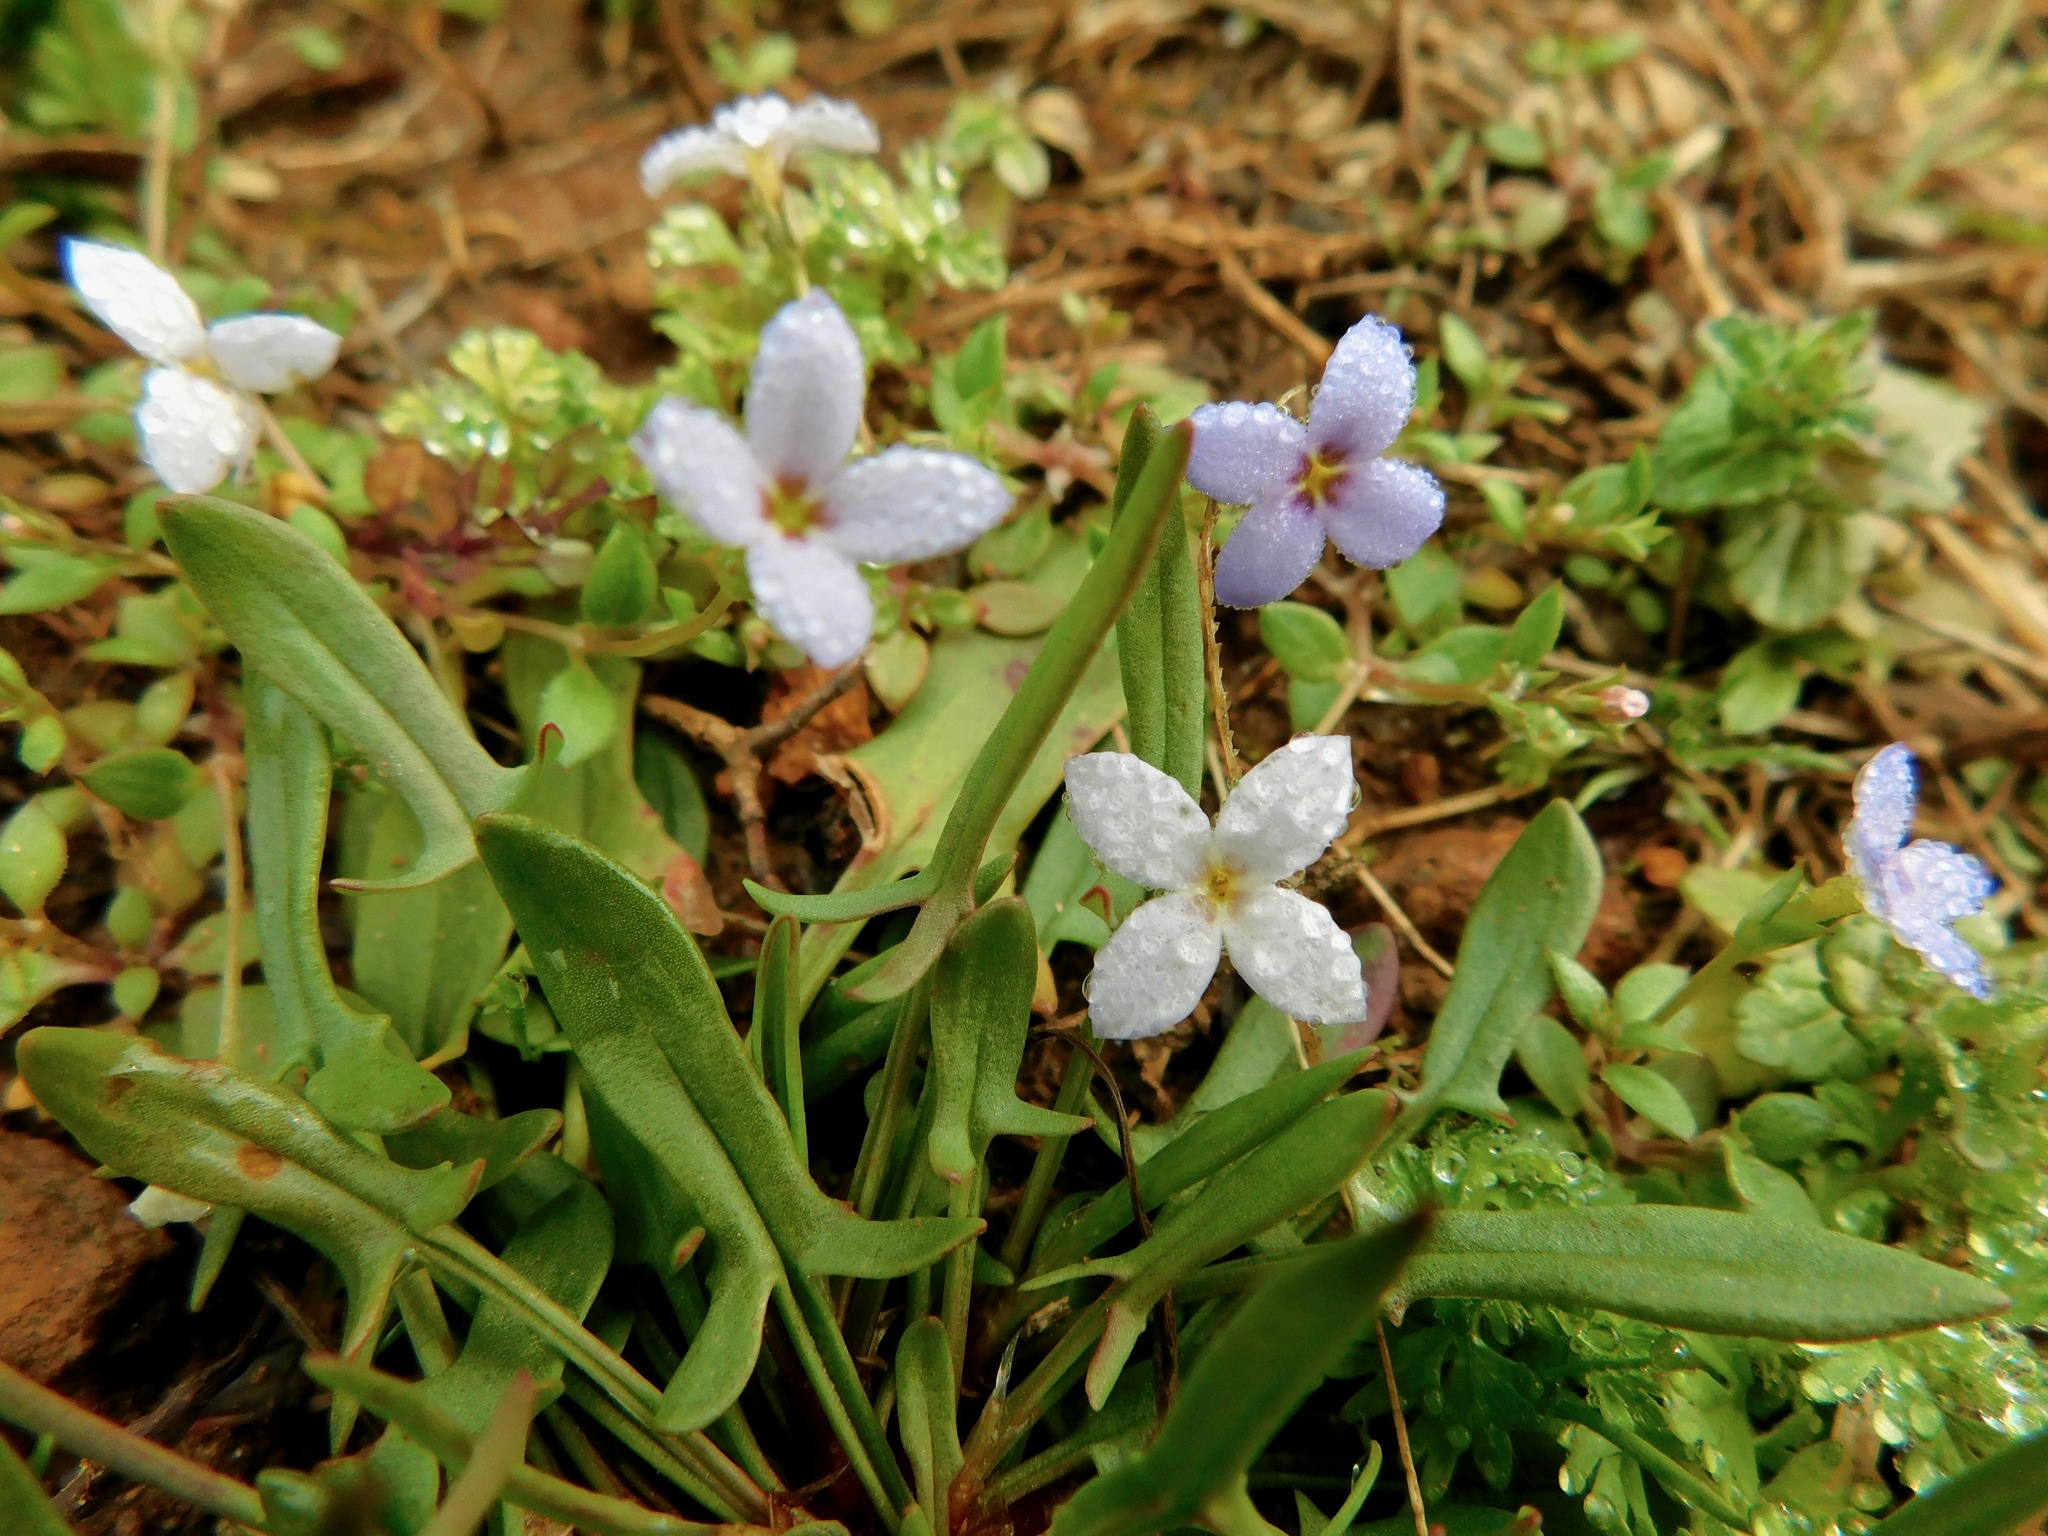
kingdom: Plantae
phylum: Tracheophyta
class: Magnoliopsida
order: Gentianales
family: Rubiaceae
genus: Houstonia
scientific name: Houstonia pusilla
